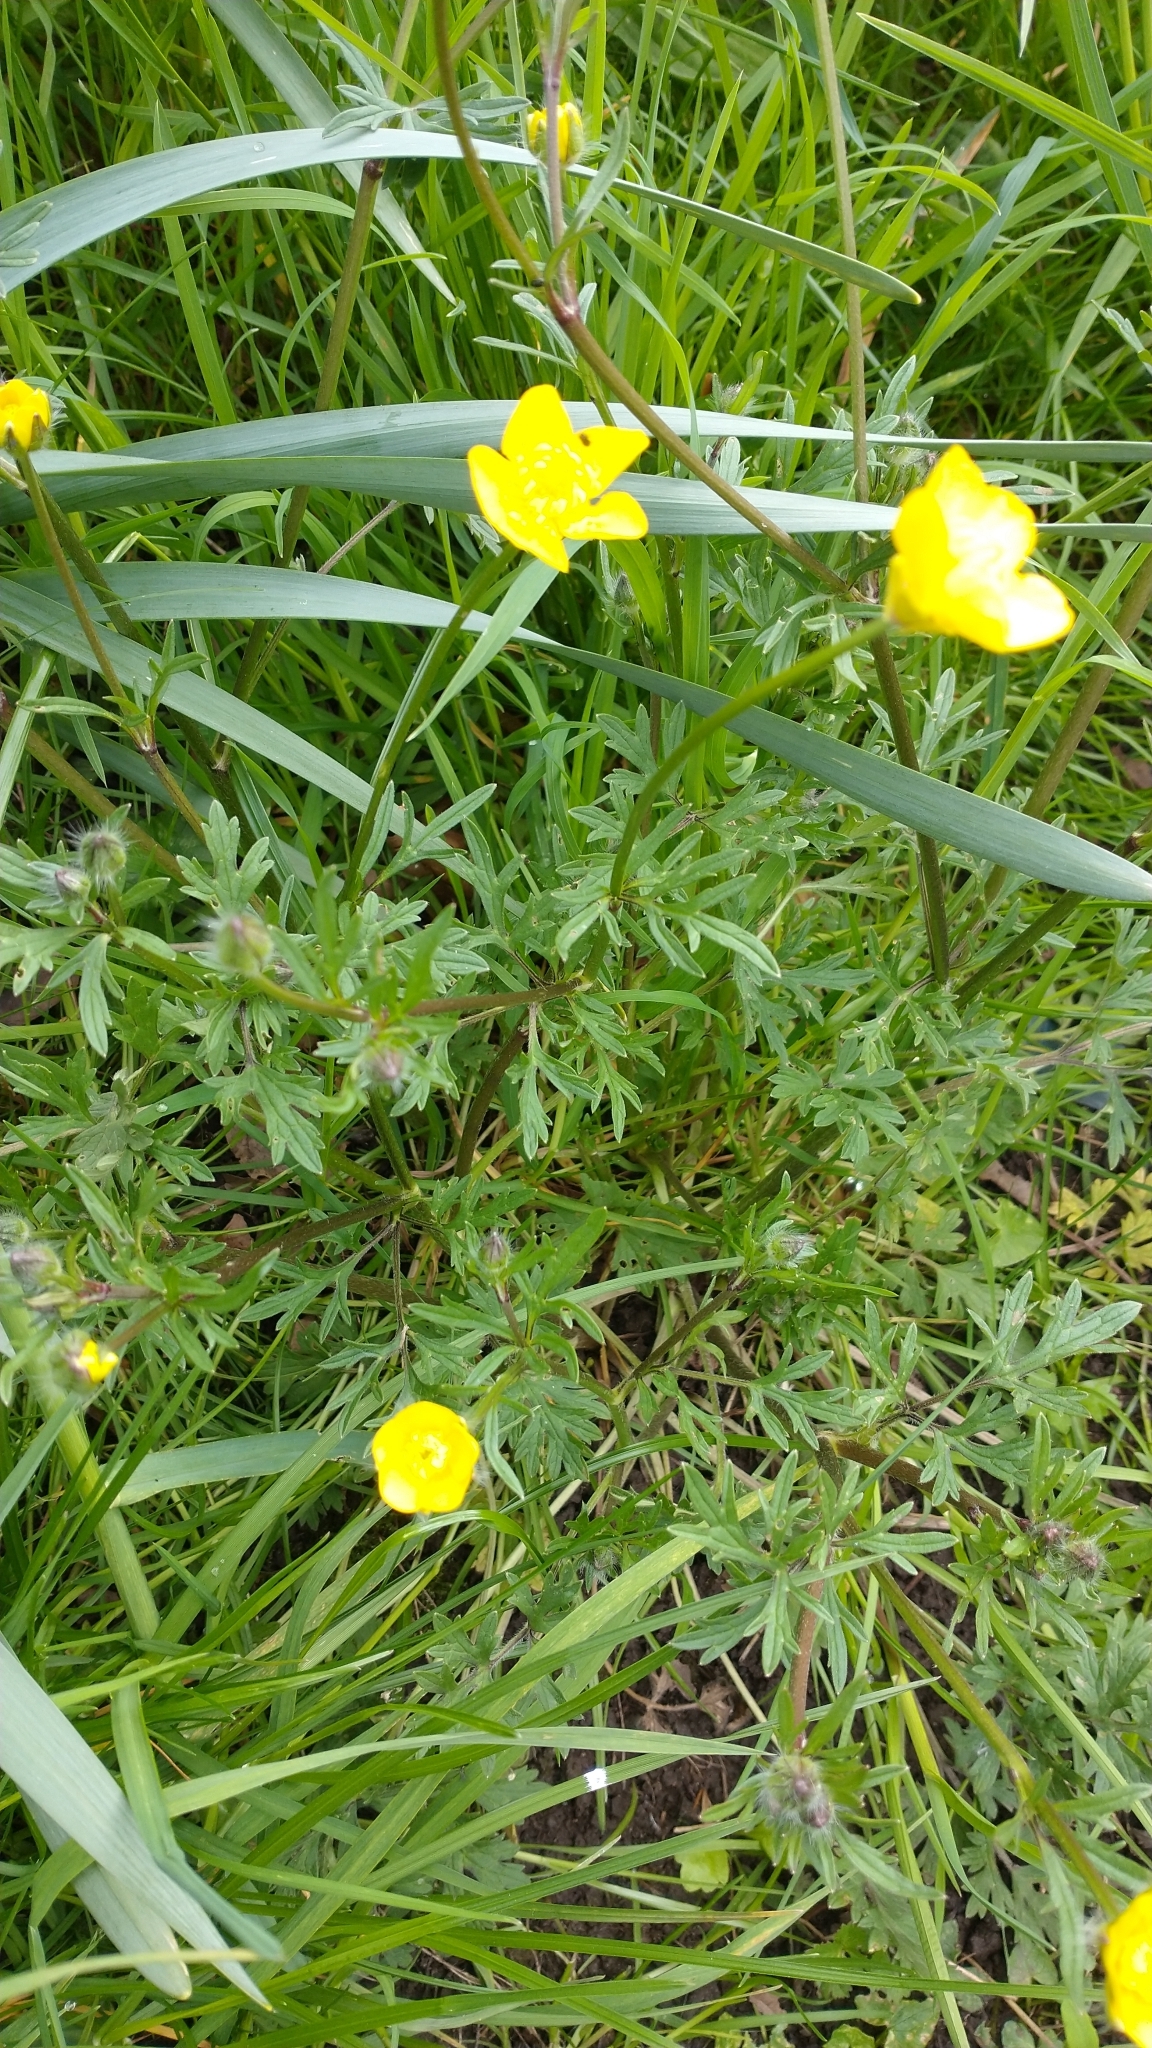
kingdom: Plantae
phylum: Tracheophyta
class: Magnoliopsida
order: Ranunculales
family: Ranunculaceae
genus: Ranunculus
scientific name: Ranunculus acris
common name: Meadow buttercup
